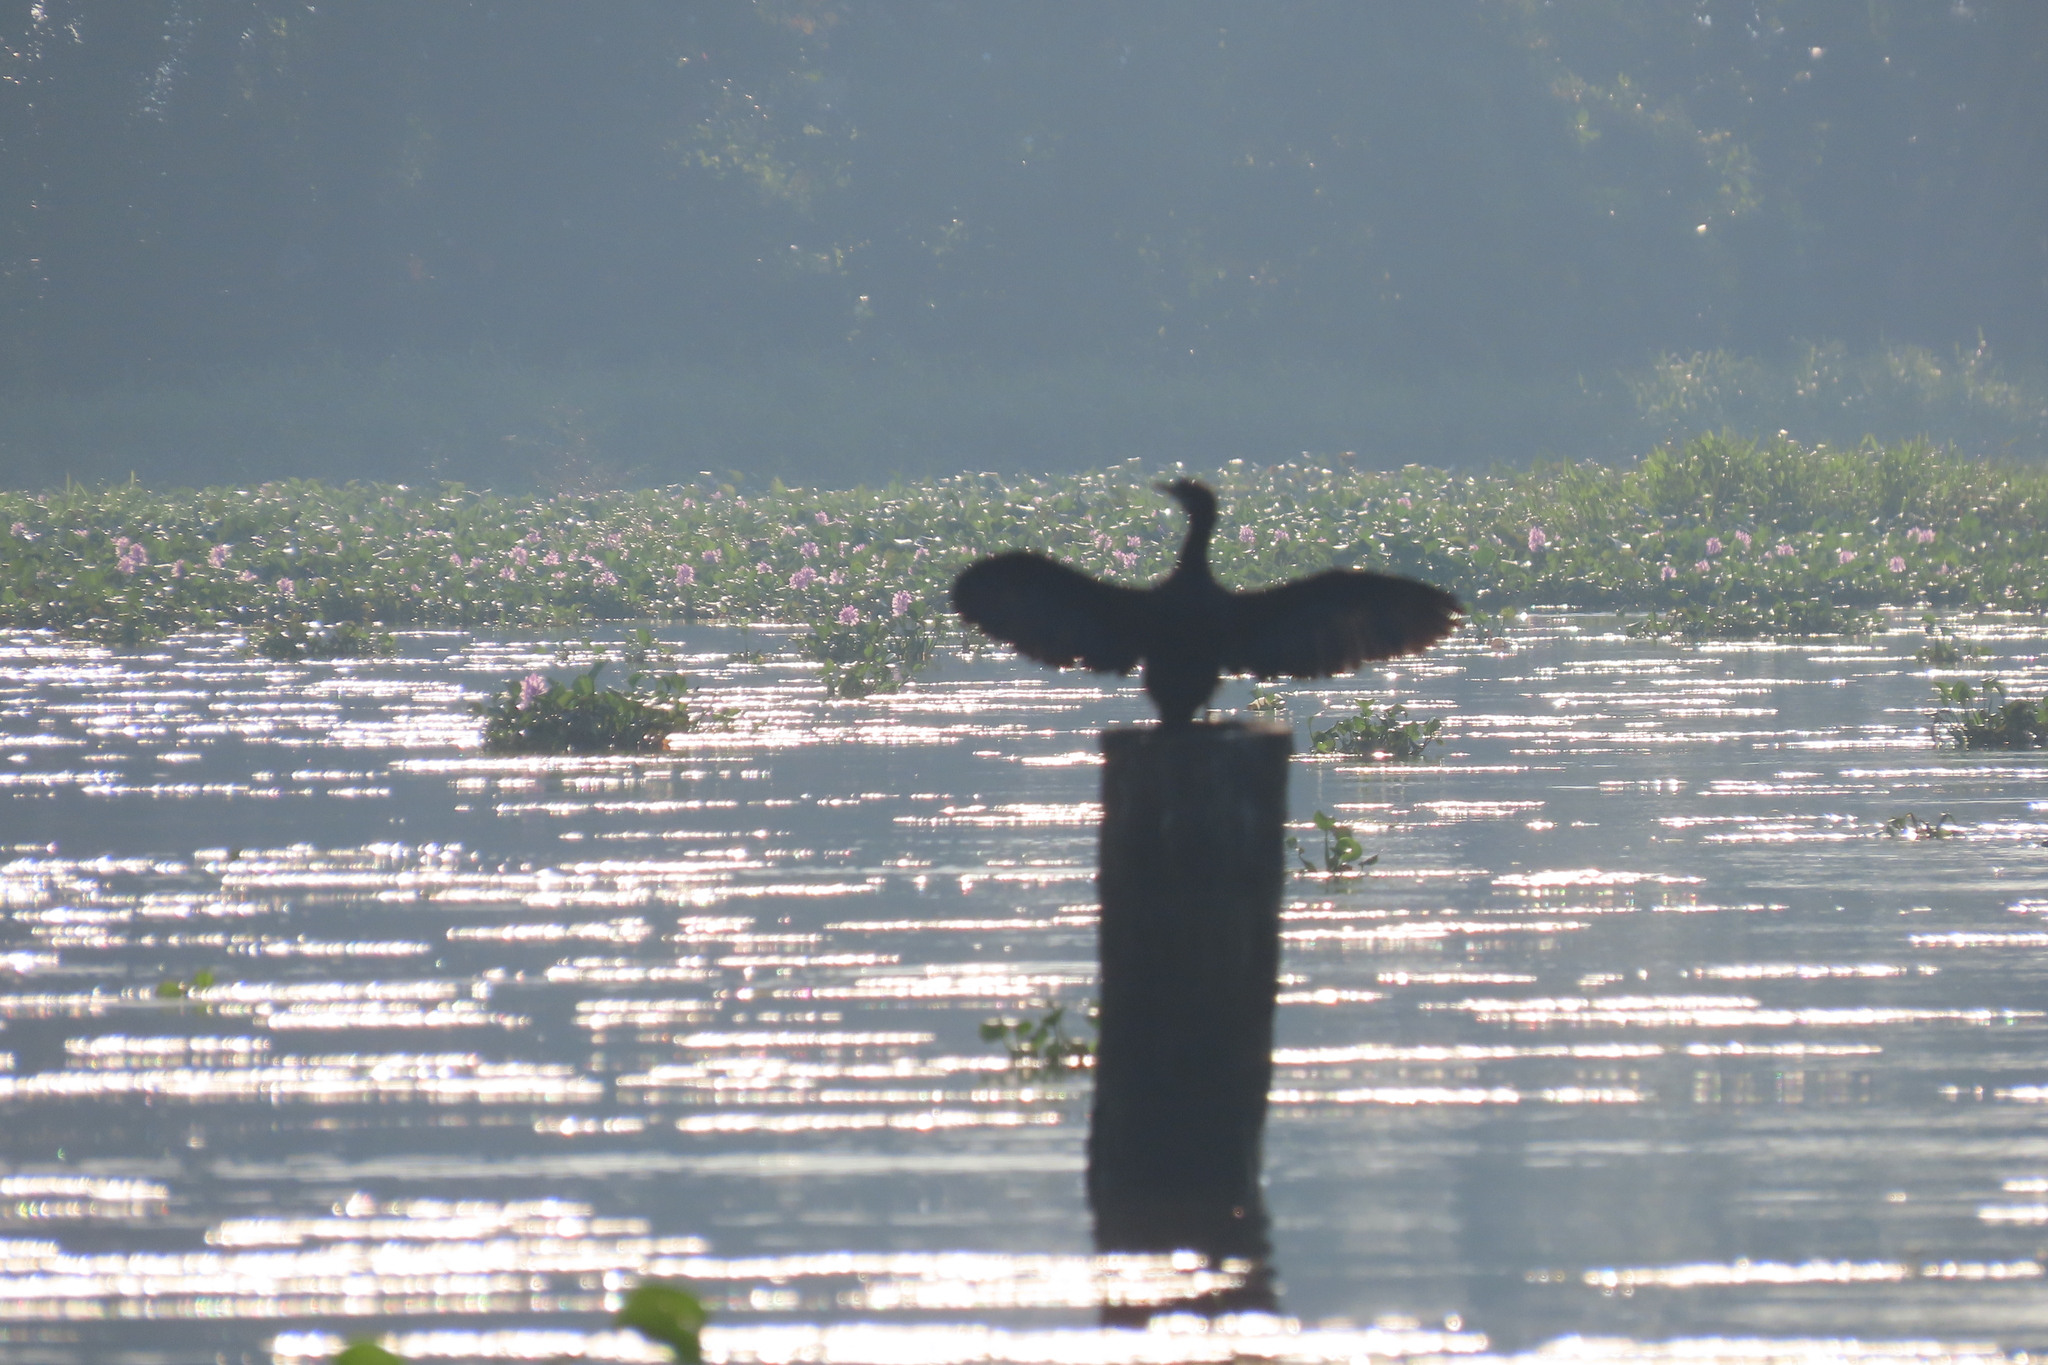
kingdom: Animalia
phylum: Chordata
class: Aves
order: Suliformes
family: Phalacrocoracidae
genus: Microcarbo
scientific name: Microcarbo niger
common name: Little cormorant
